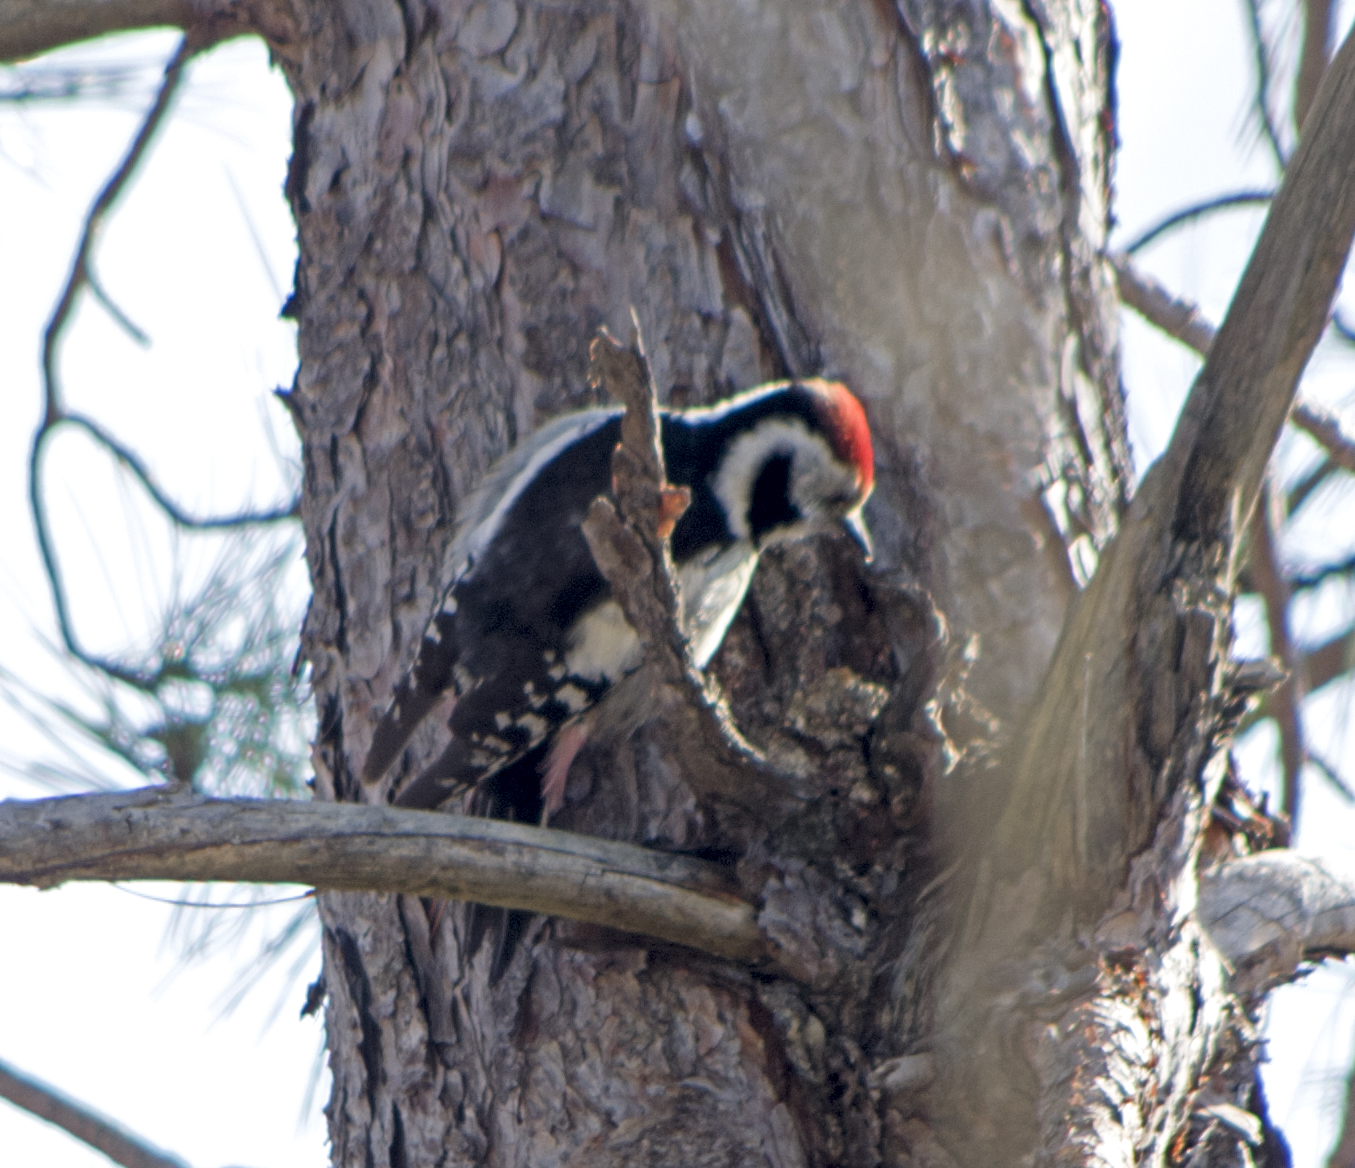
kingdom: Animalia
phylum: Chordata
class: Aves
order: Piciformes
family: Picidae
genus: Dendrocoptes
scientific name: Dendrocoptes medius
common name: Middle spotted woodpecker
